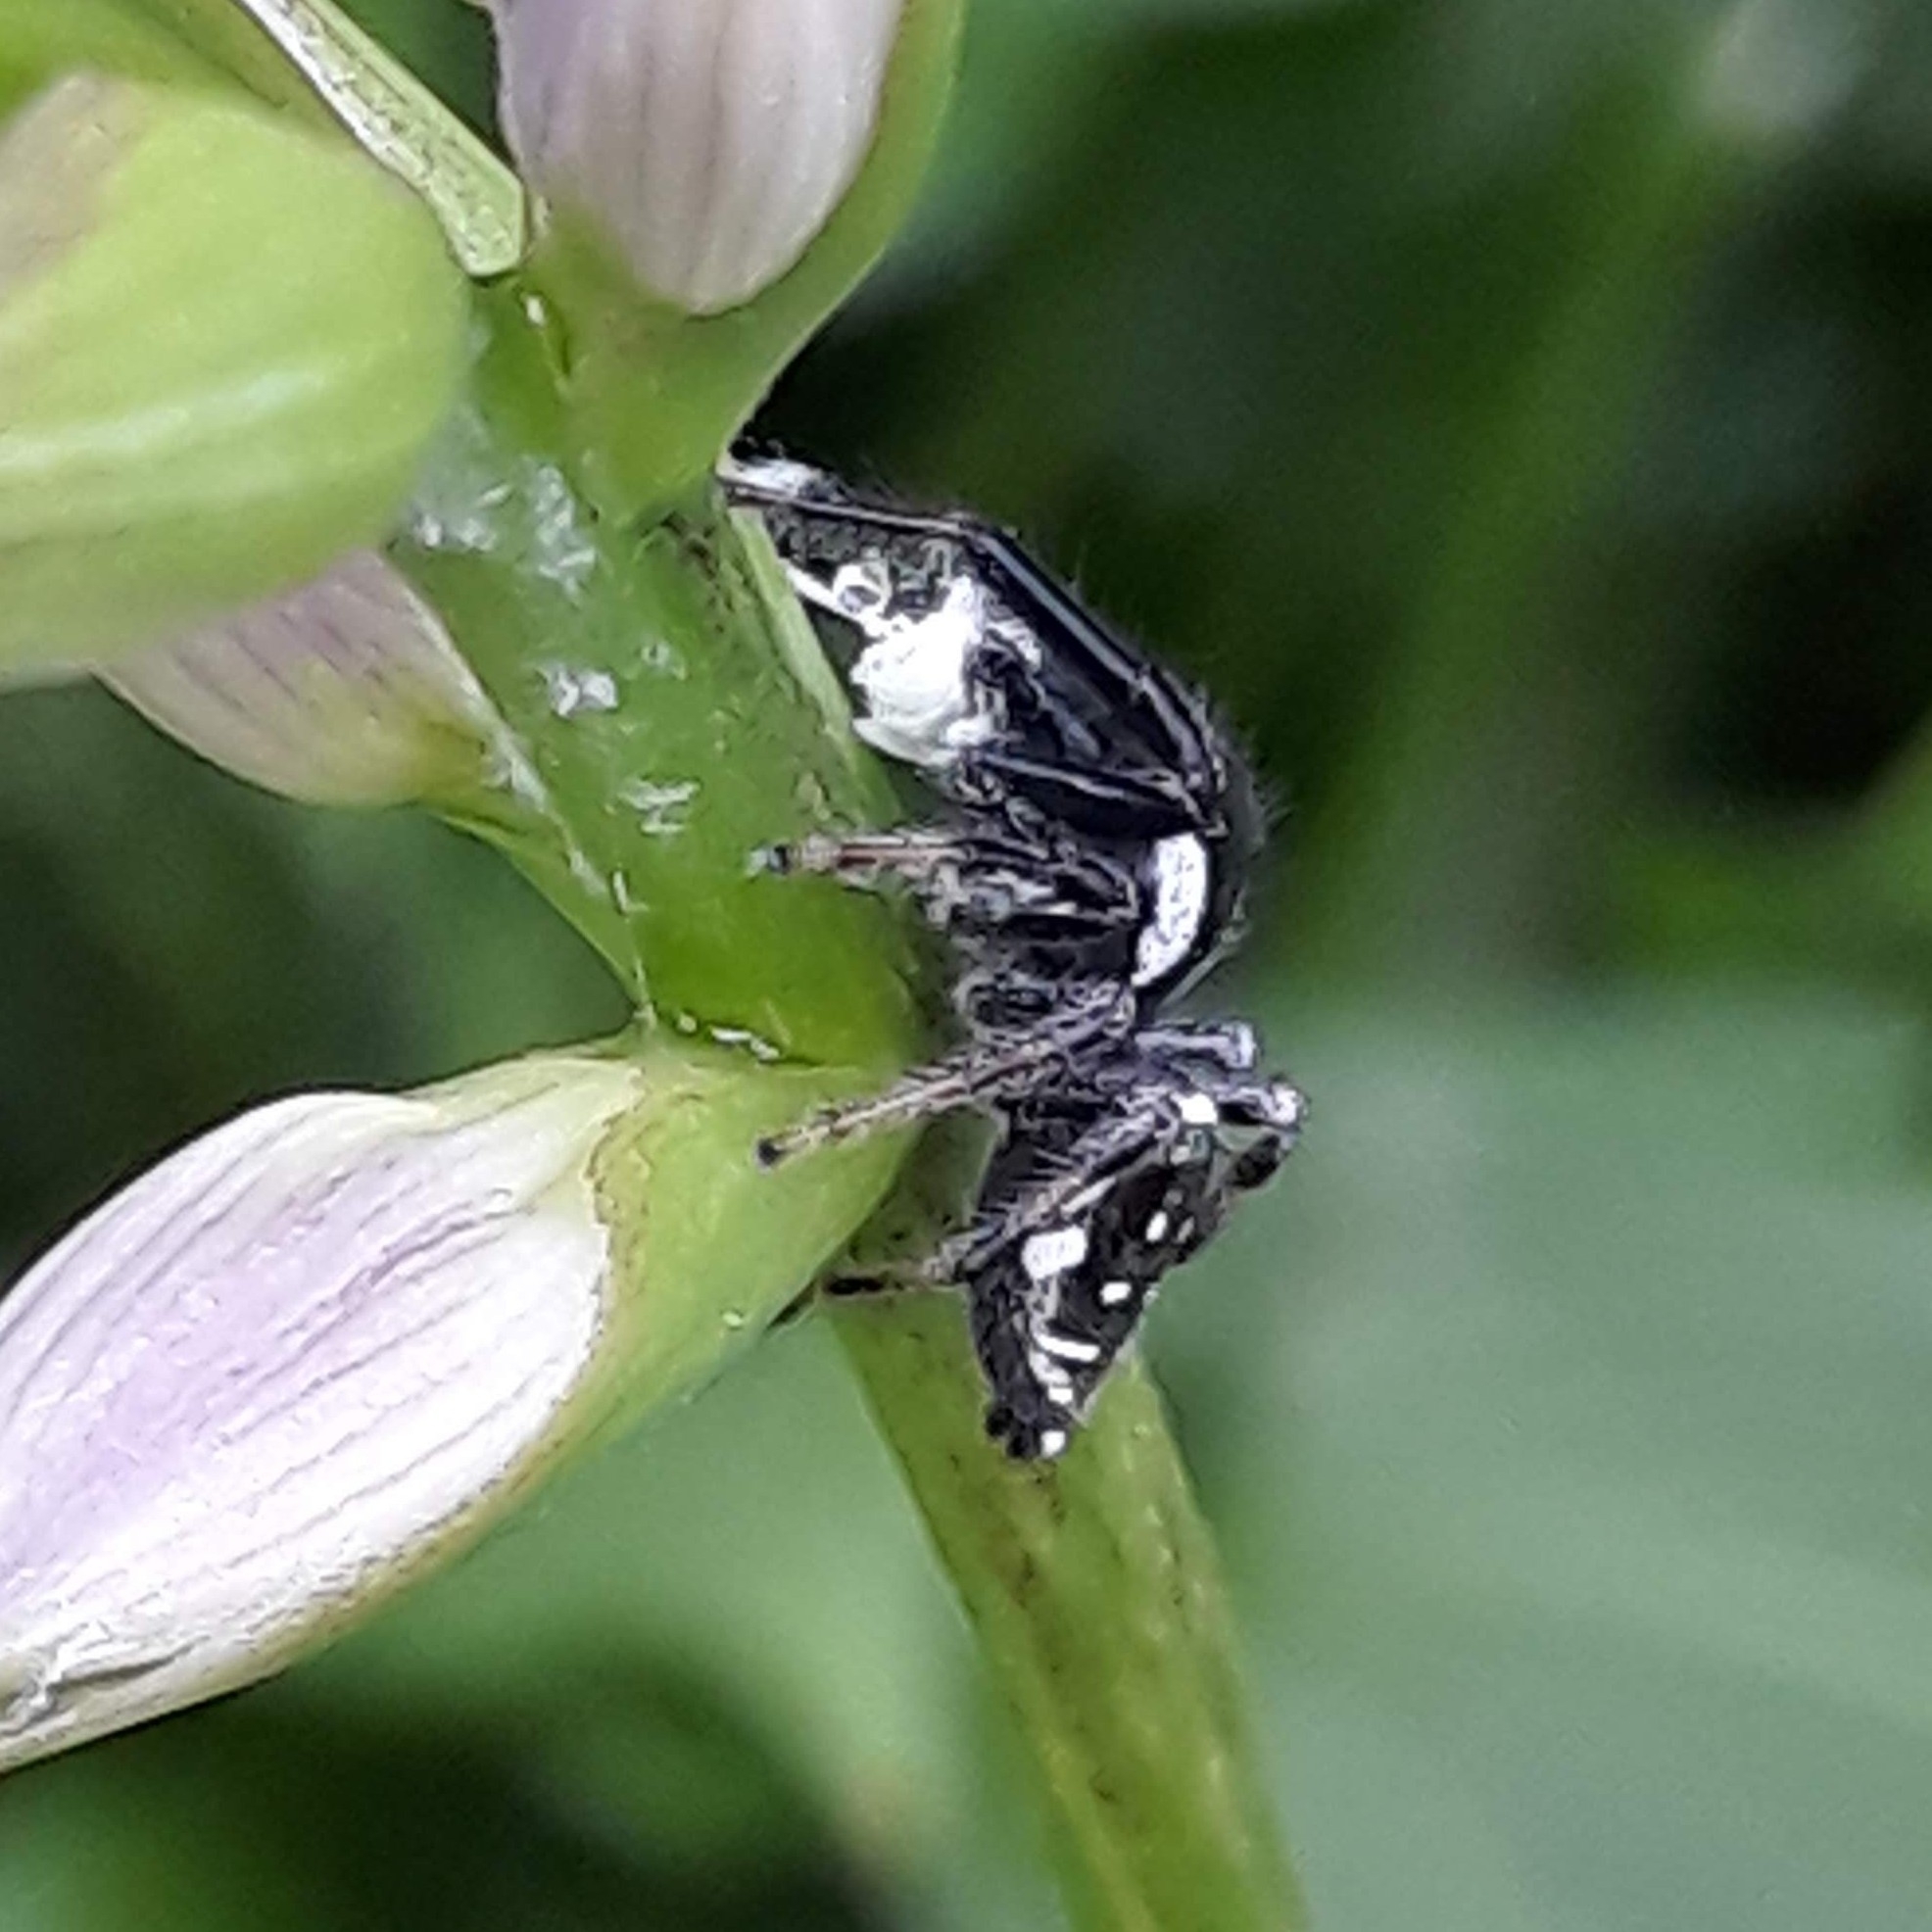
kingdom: Animalia
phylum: Arthropoda
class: Arachnida
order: Araneae
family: Salticidae
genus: Paraphidippus
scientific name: Paraphidippus aurantius
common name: Jumping spiders
